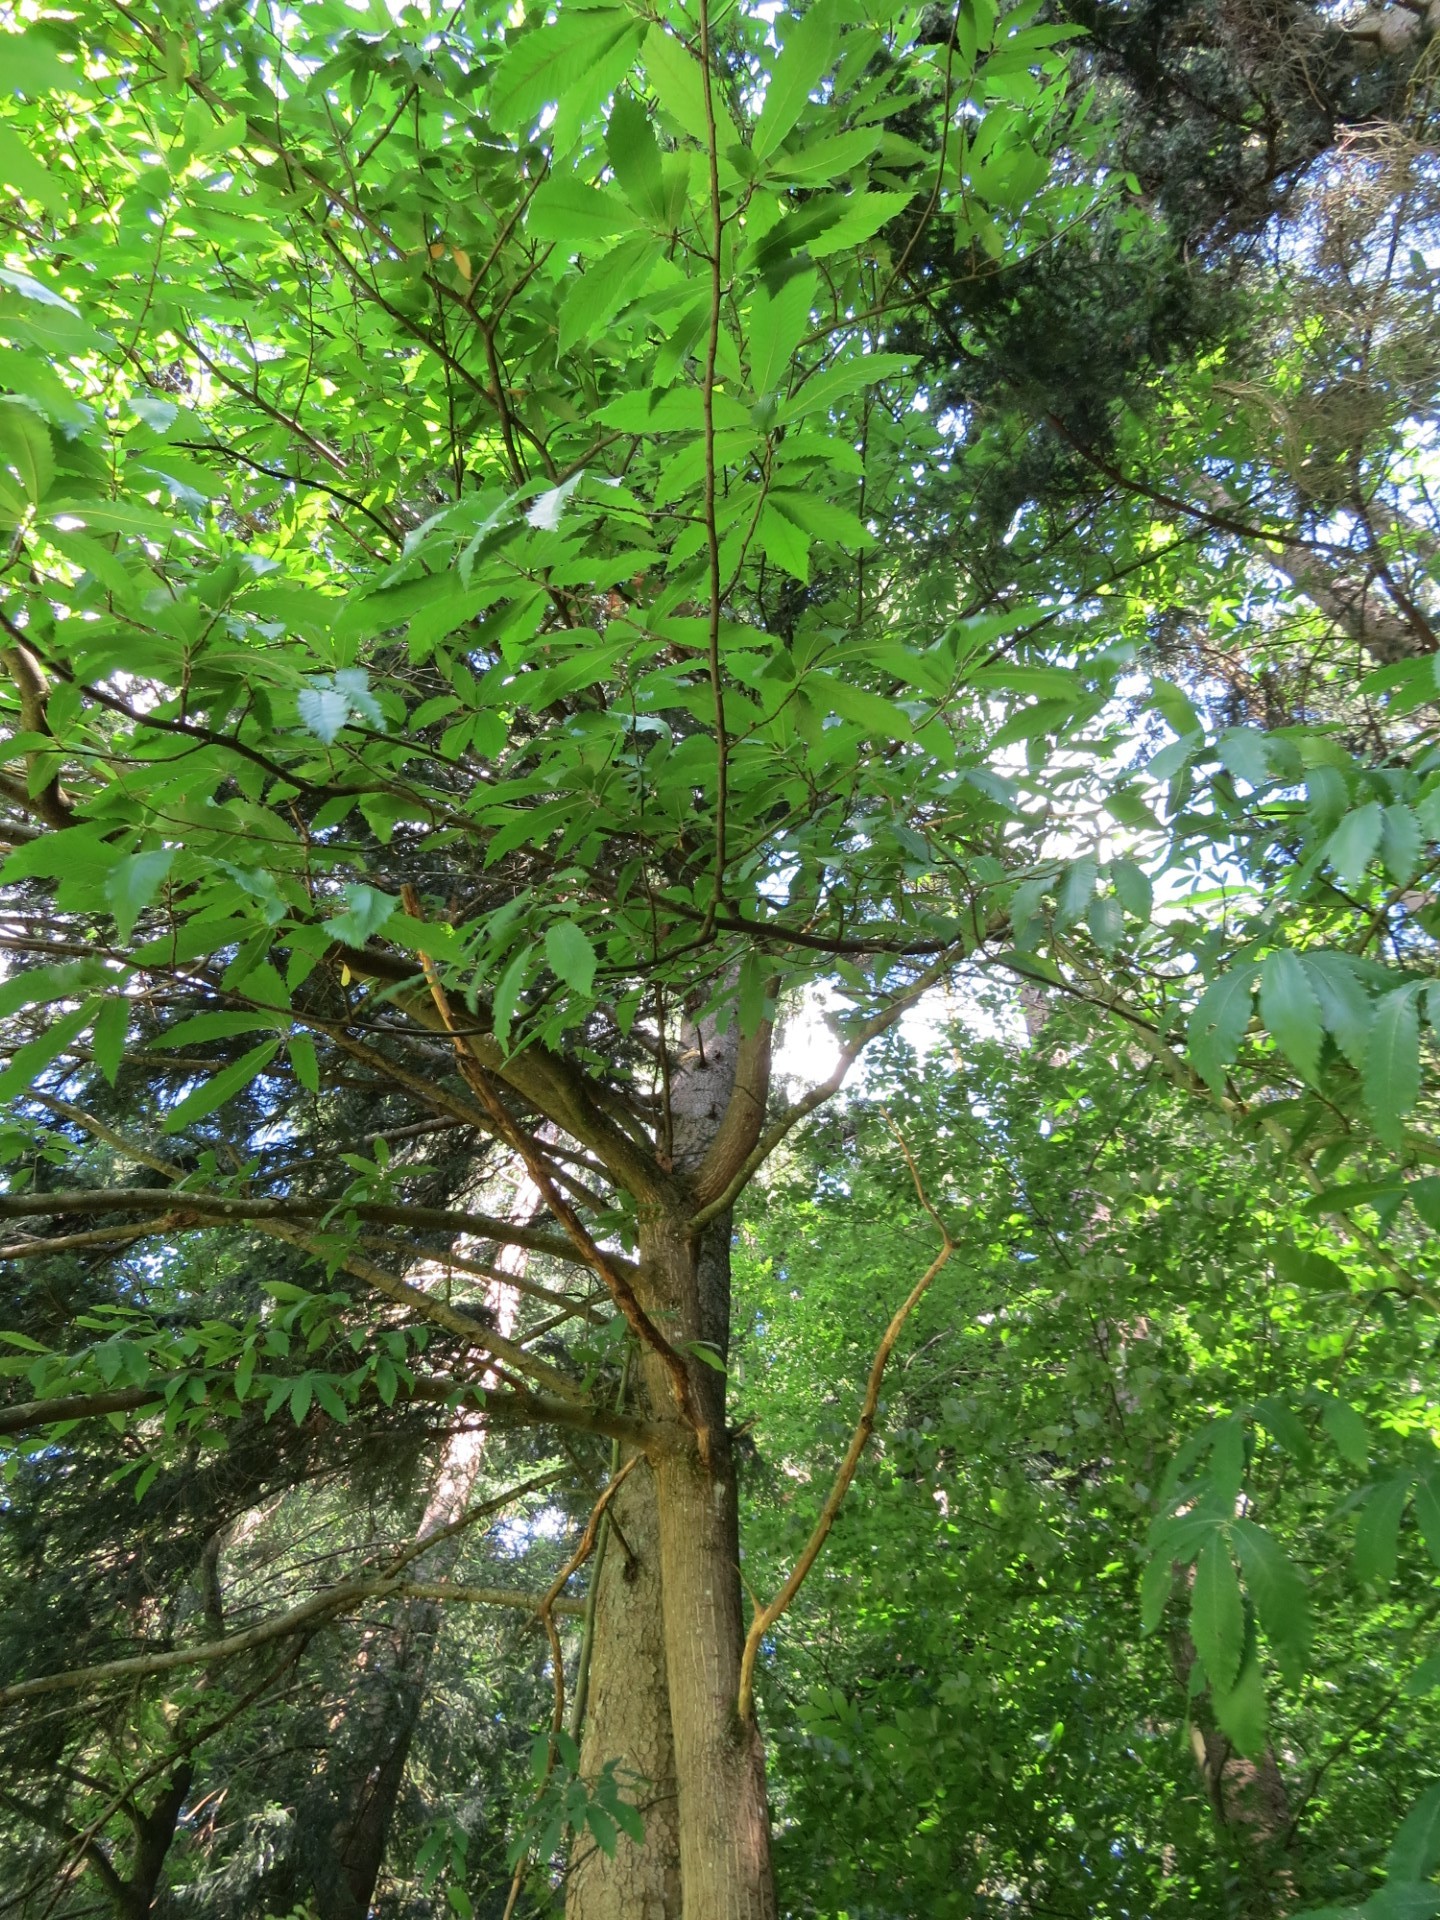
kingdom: Plantae
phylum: Tracheophyta
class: Magnoliopsida
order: Fagales
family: Fagaceae
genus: Castanea
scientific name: Castanea sativa
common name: Sweet chestnut
